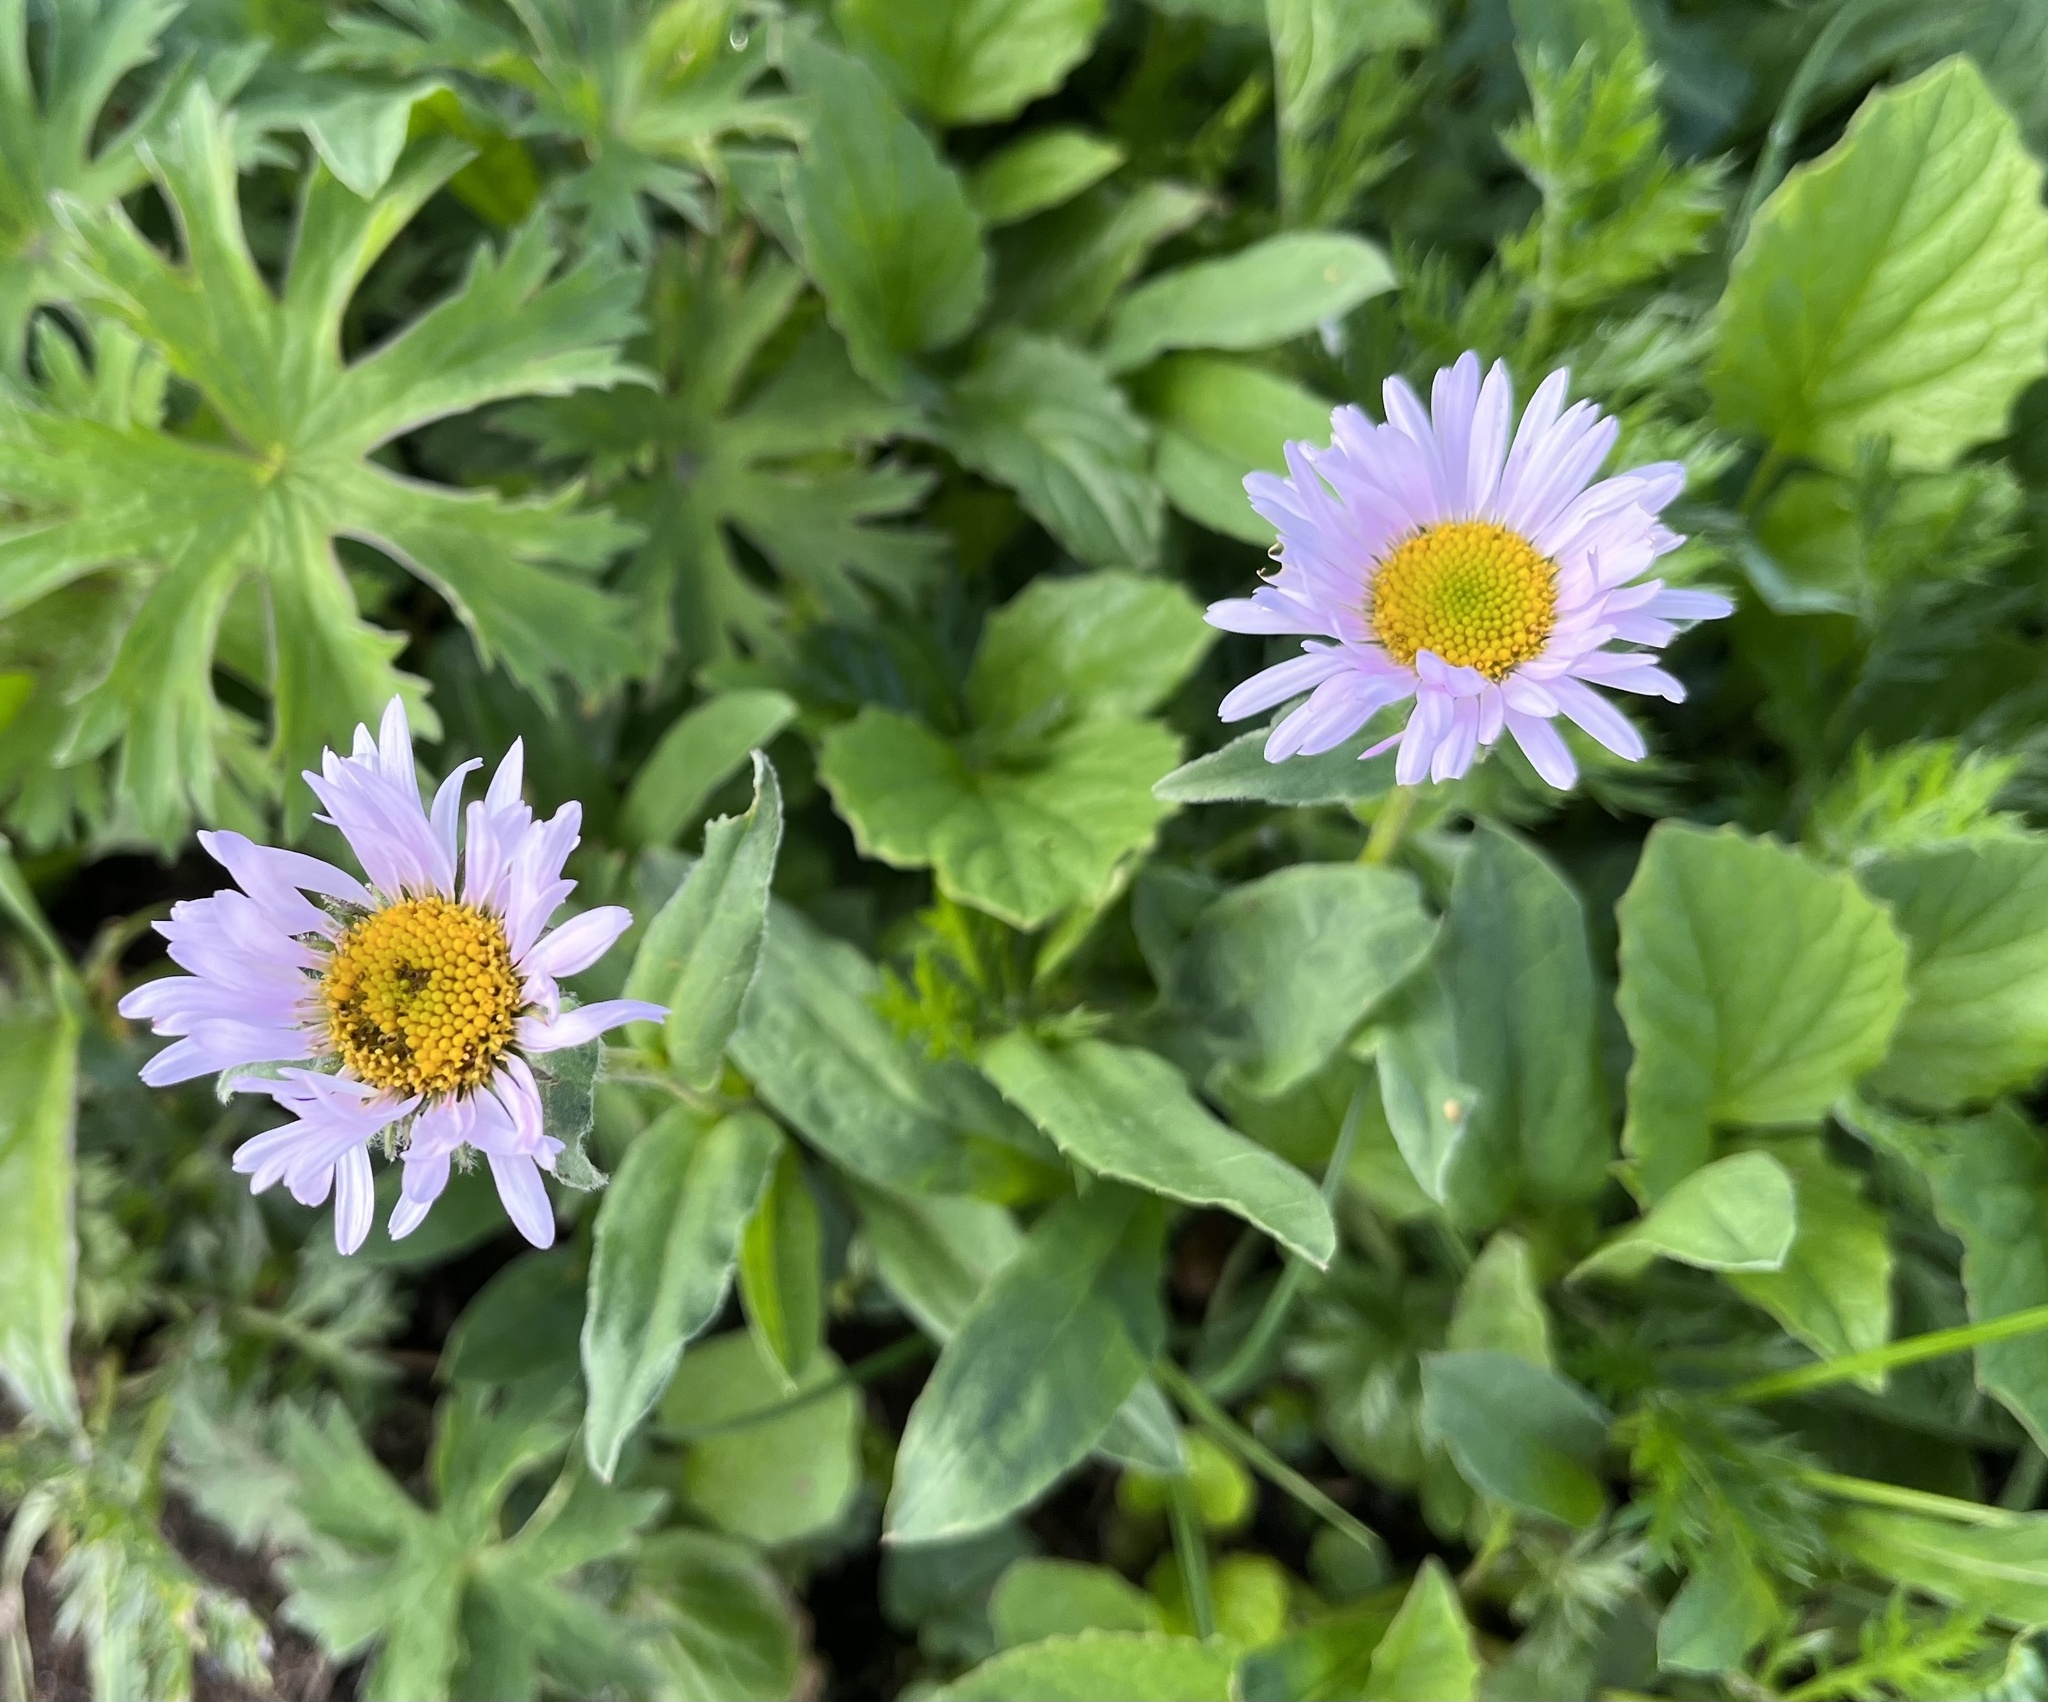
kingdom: Plantae
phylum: Tracheophyta
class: Magnoliopsida
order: Asterales
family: Asteraceae
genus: Erigeron
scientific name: Erigeron peregrinus
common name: Peregrine fleabane
